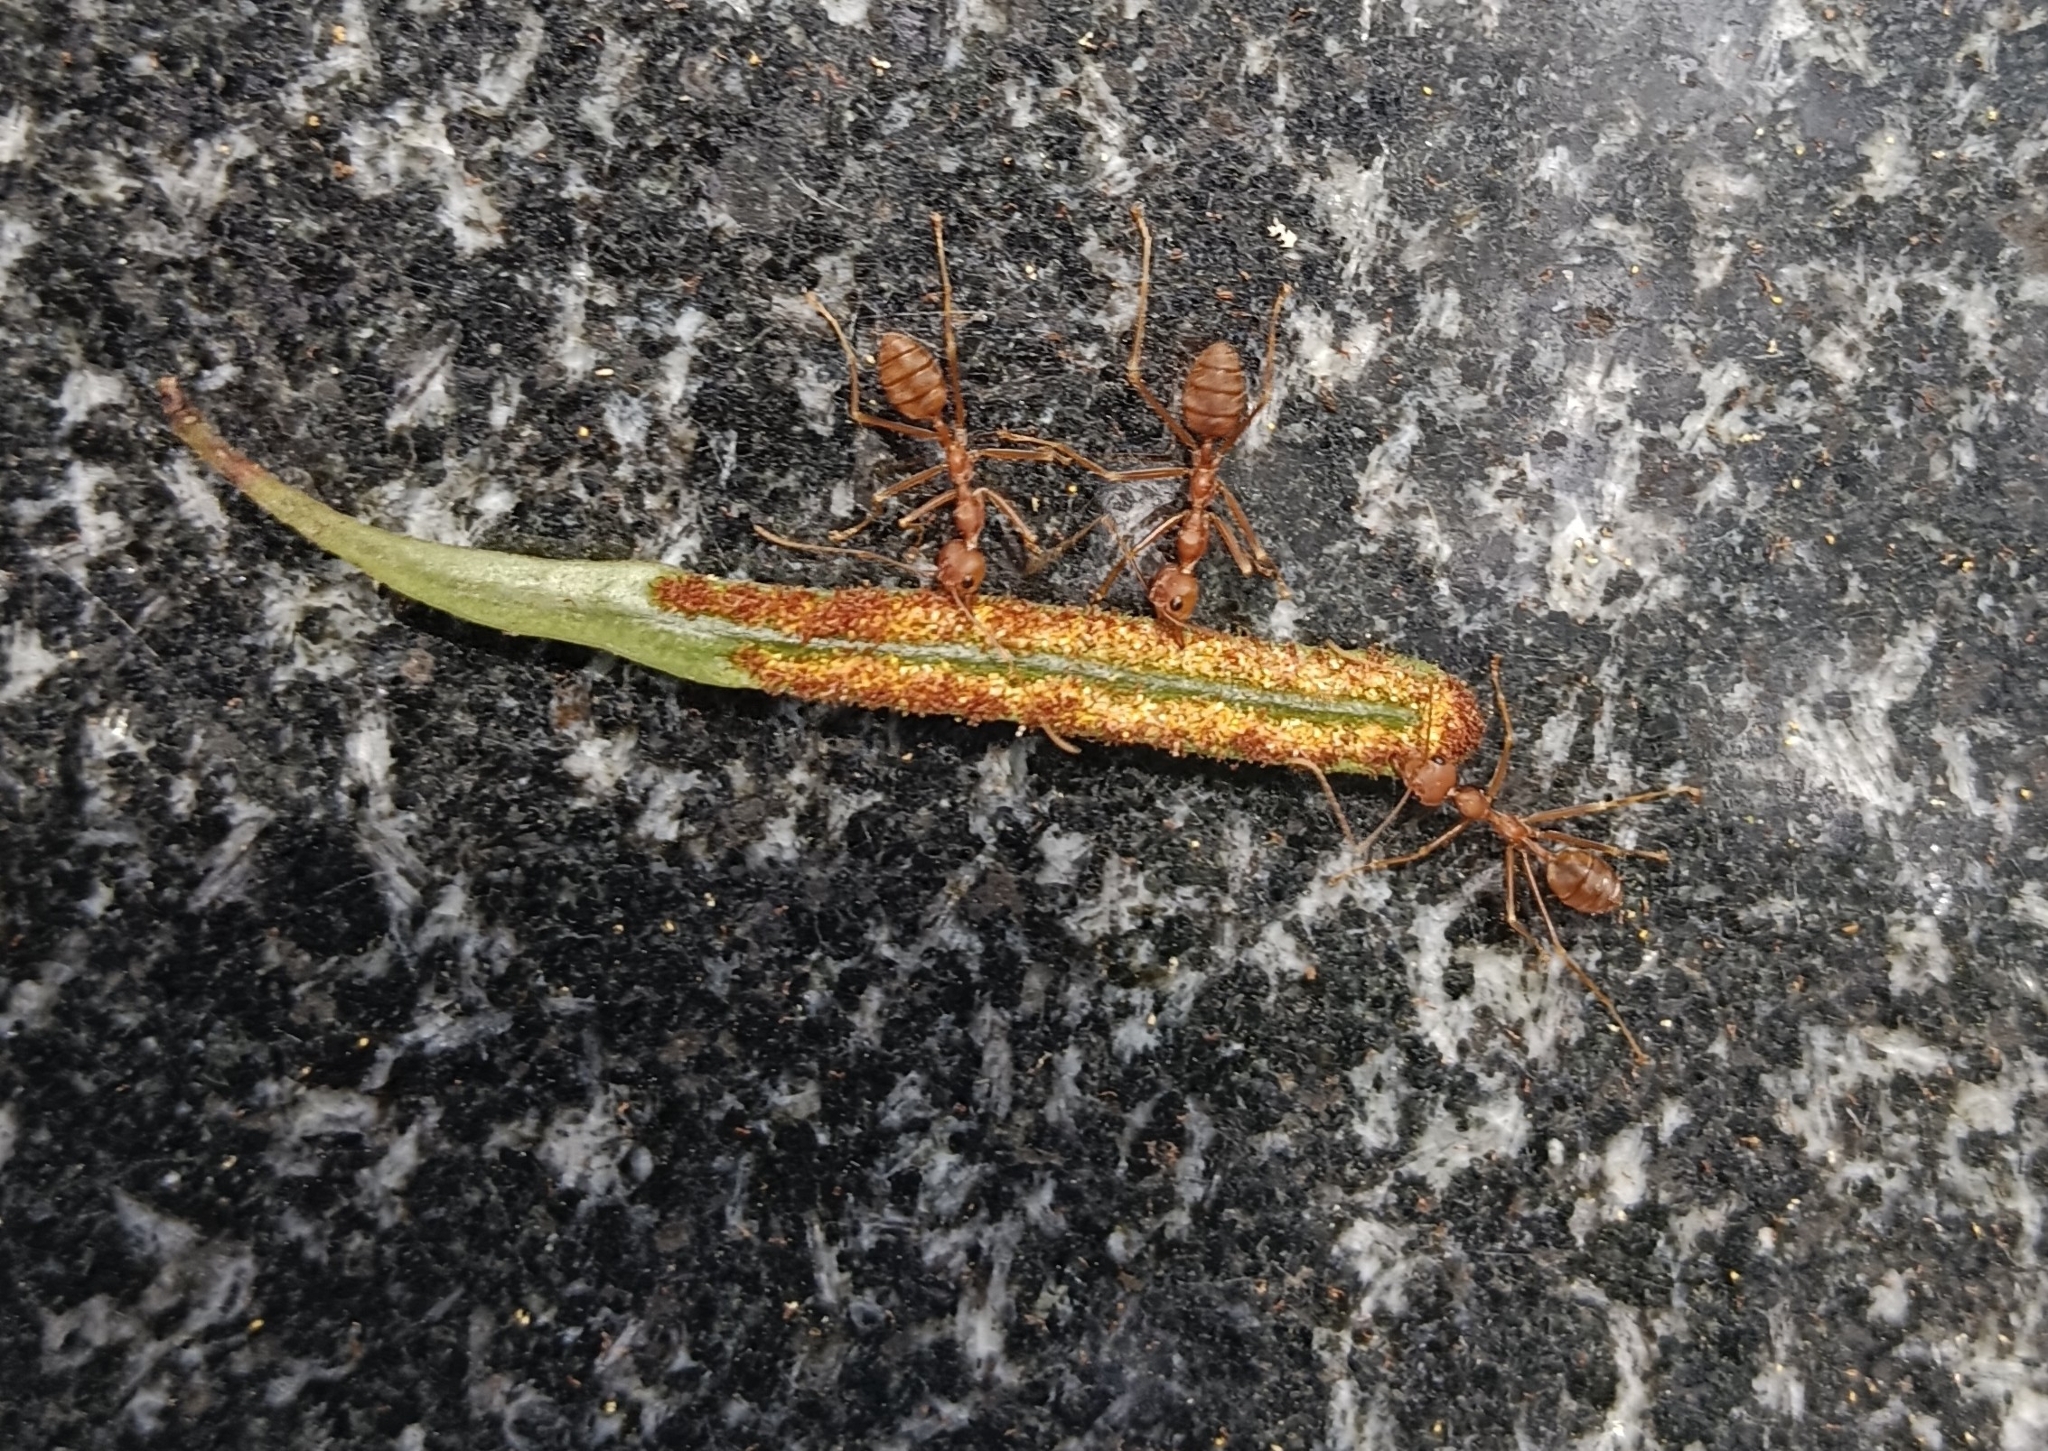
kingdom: Animalia
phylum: Arthropoda
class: Insecta
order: Hymenoptera
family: Formicidae
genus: Oecophylla
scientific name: Oecophylla smaragdina
